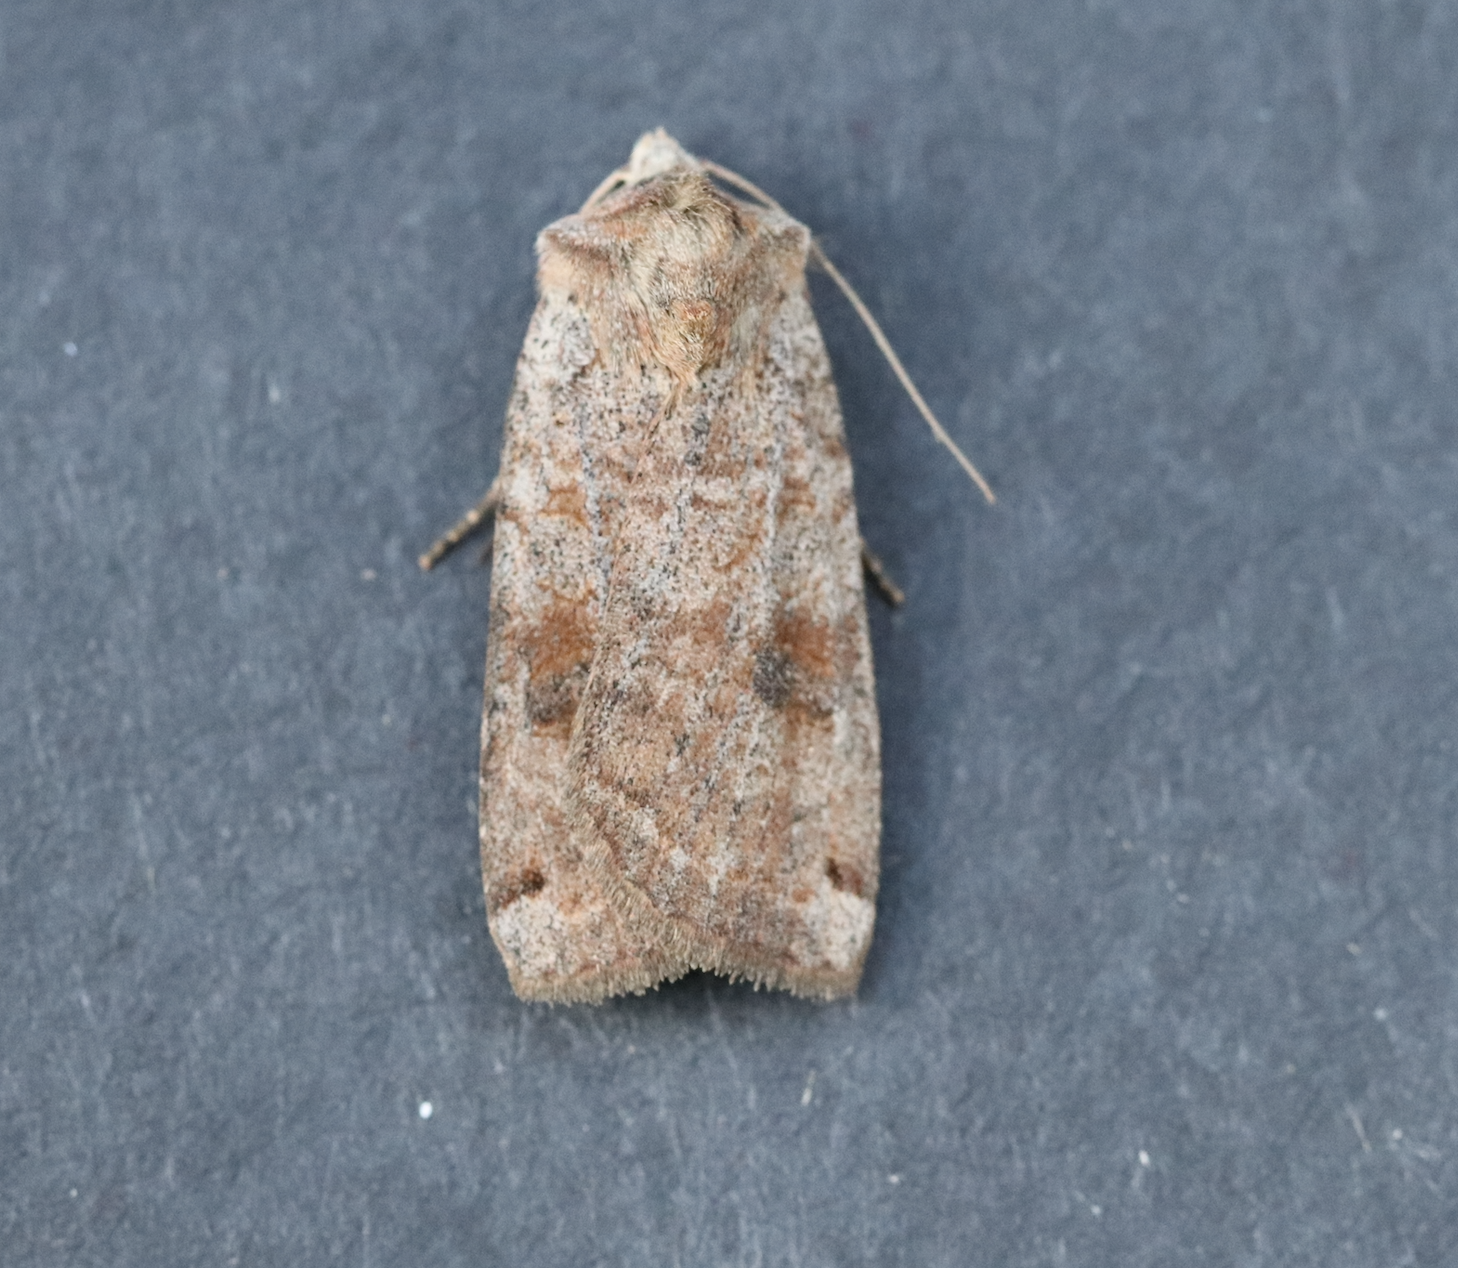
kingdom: Animalia
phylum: Arthropoda
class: Insecta
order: Lepidoptera
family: Noctuidae
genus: Xestia
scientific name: Xestia smithii
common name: Smith's dart
